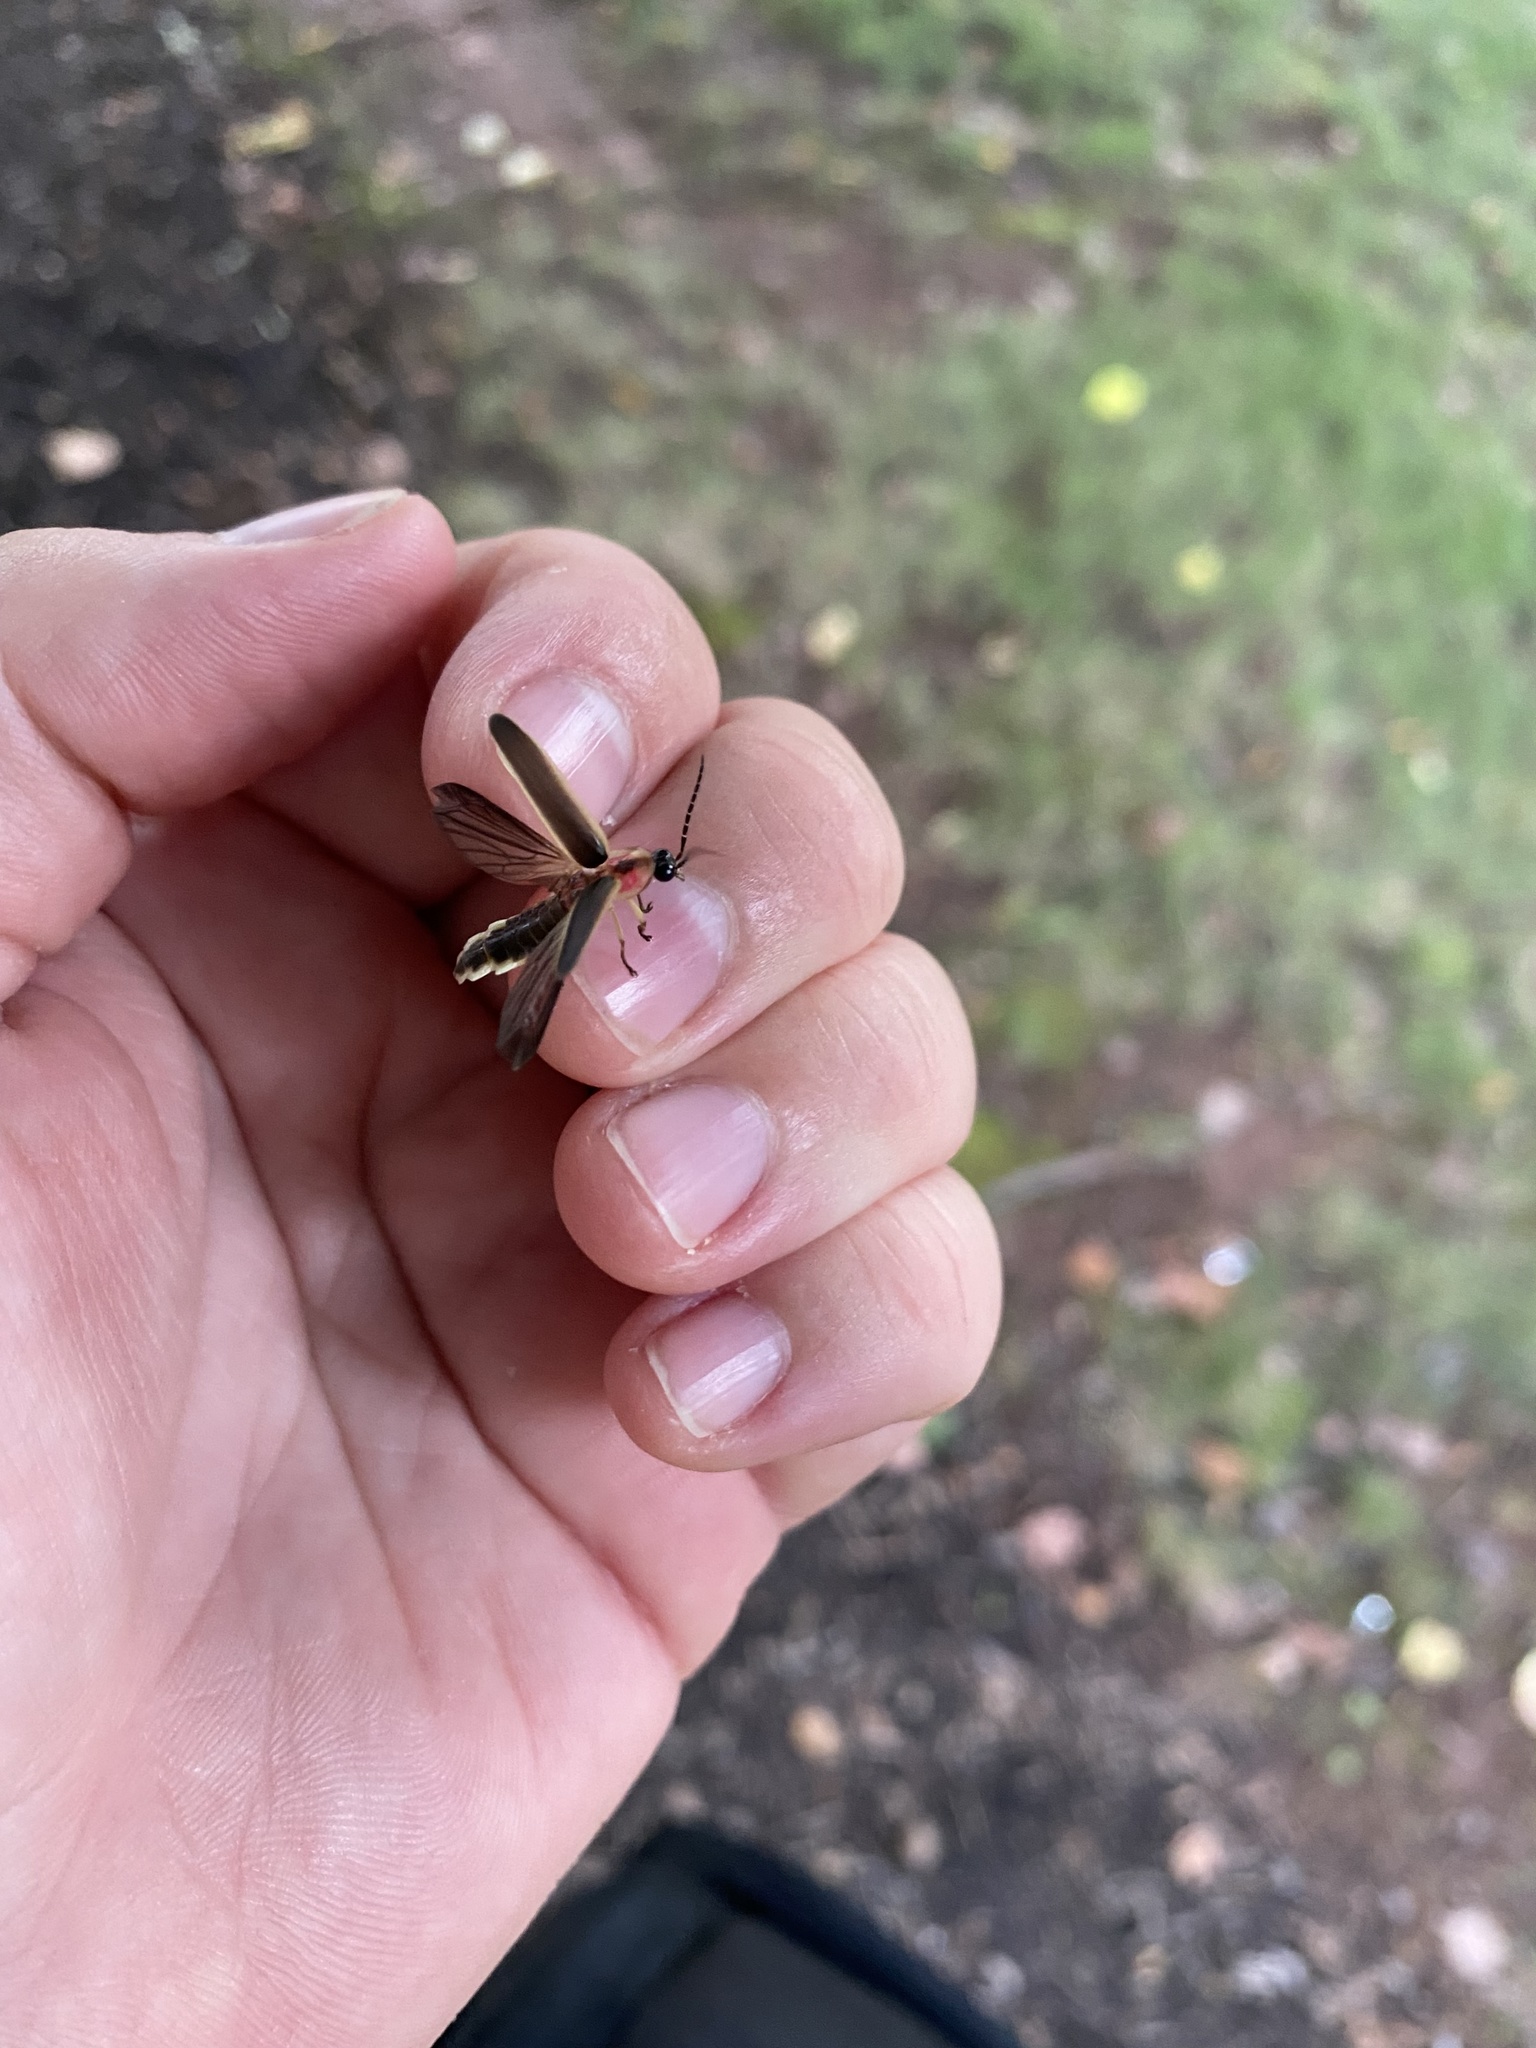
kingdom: Animalia
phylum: Arthropoda
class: Insecta
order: Coleoptera
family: Lampyridae
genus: Photinus
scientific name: Photinus pyralis
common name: Big dipper firefly
